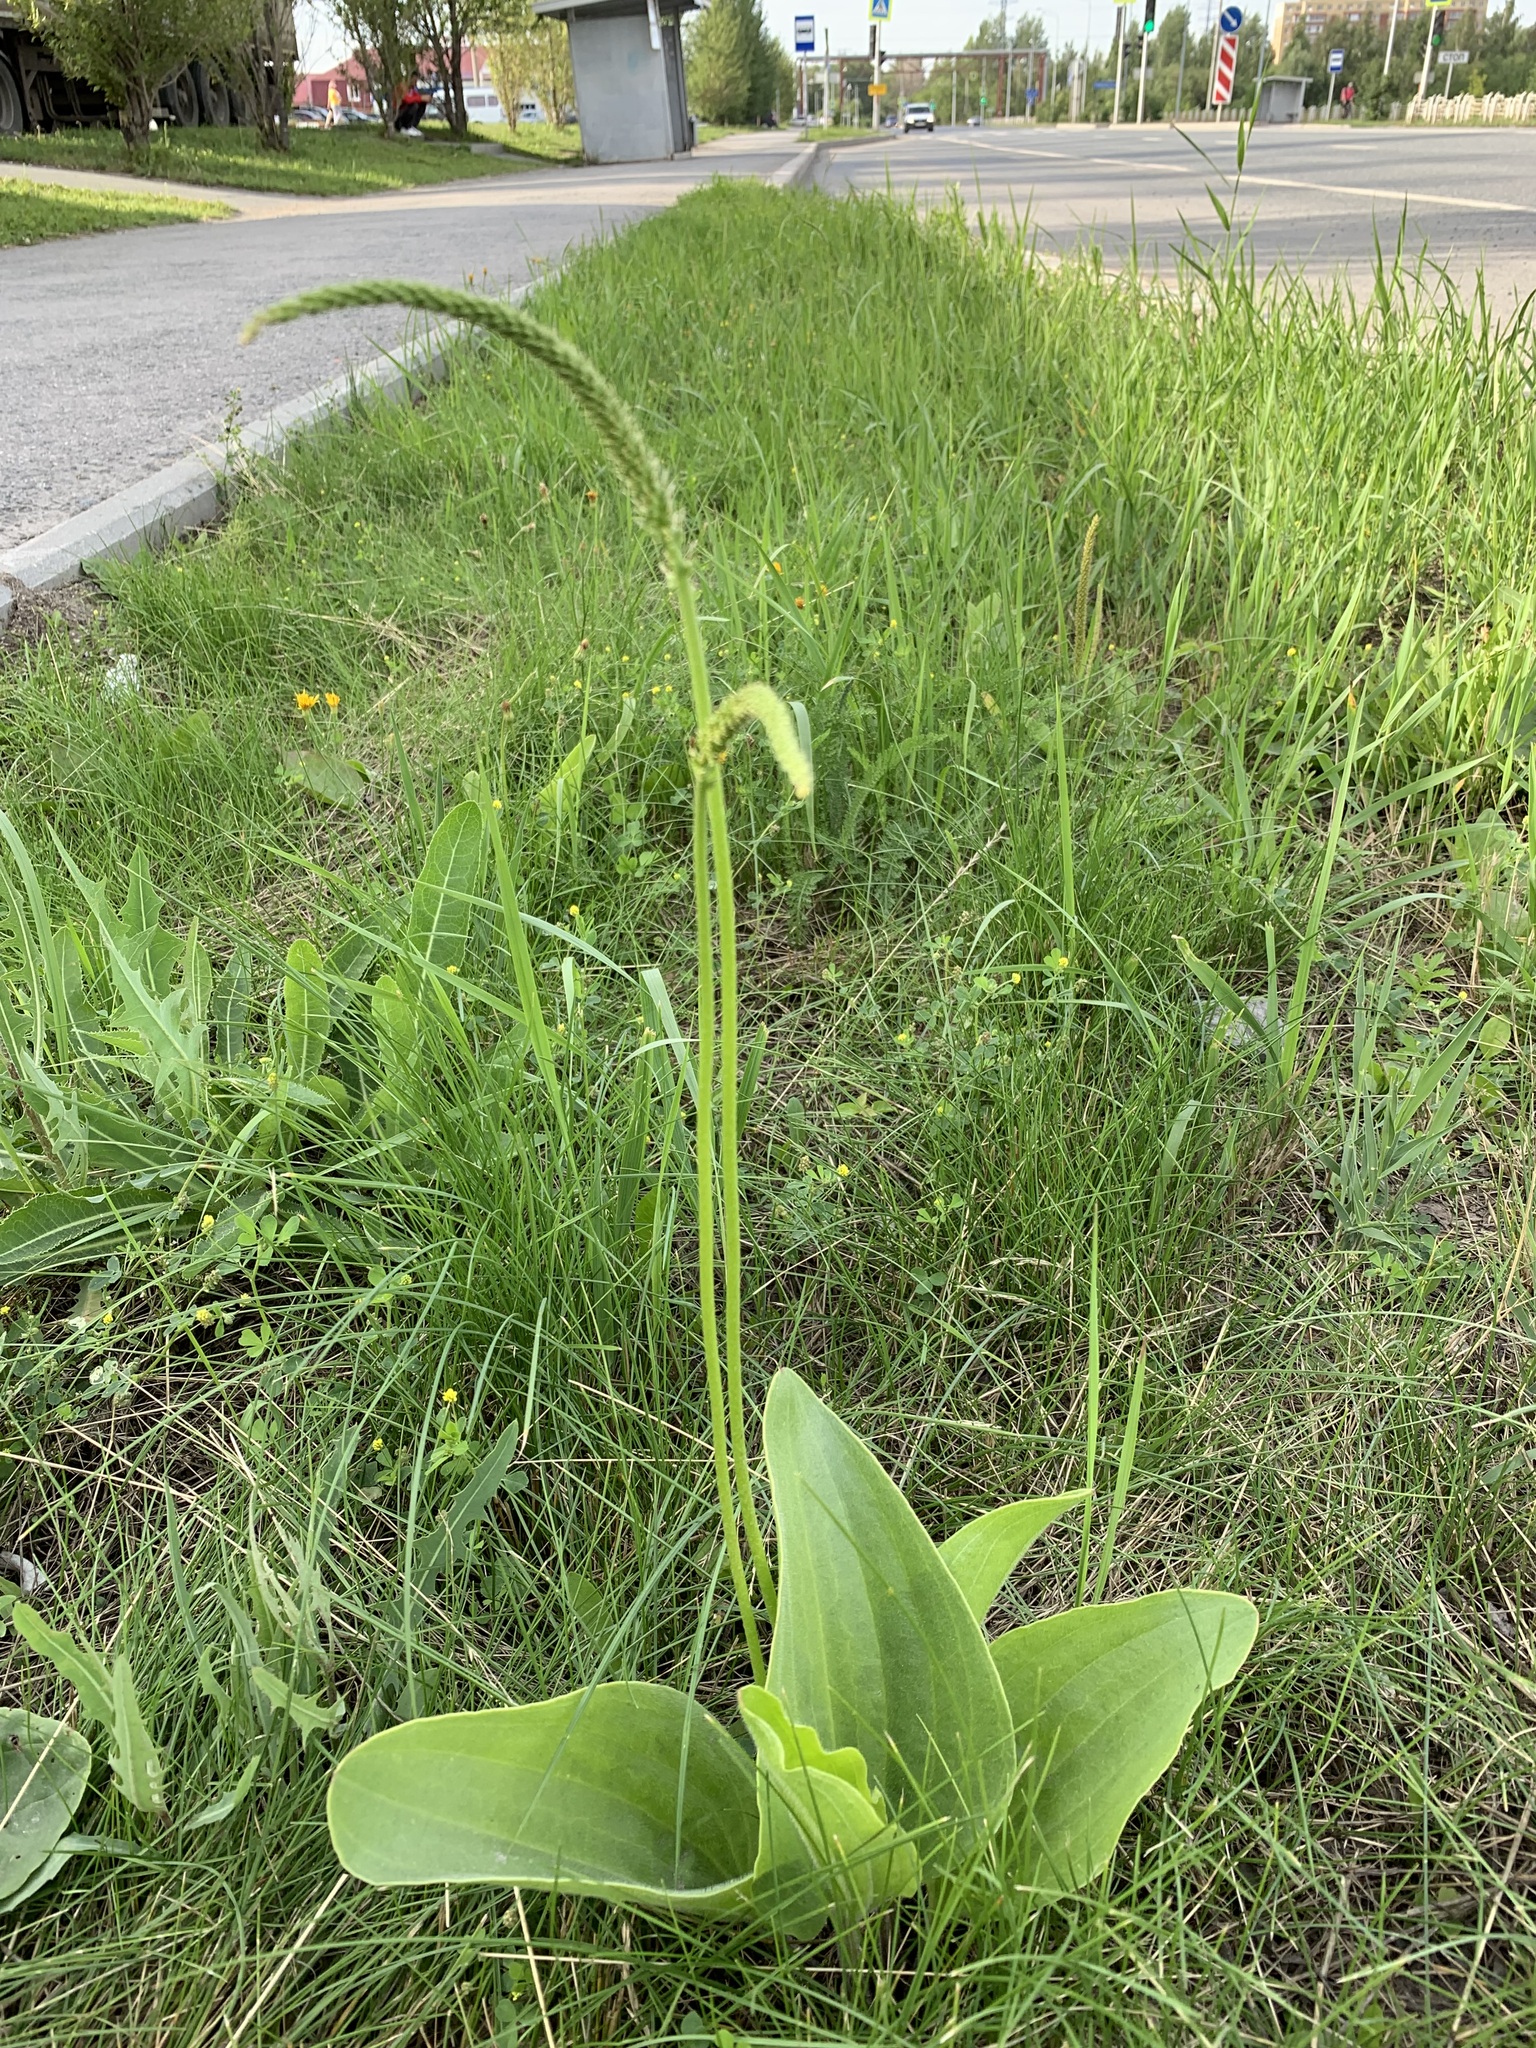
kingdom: Plantae
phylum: Tracheophyta
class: Magnoliopsida
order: Lamiales
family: Plantaginaceae
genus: Plantago
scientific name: Plantago cornuti
